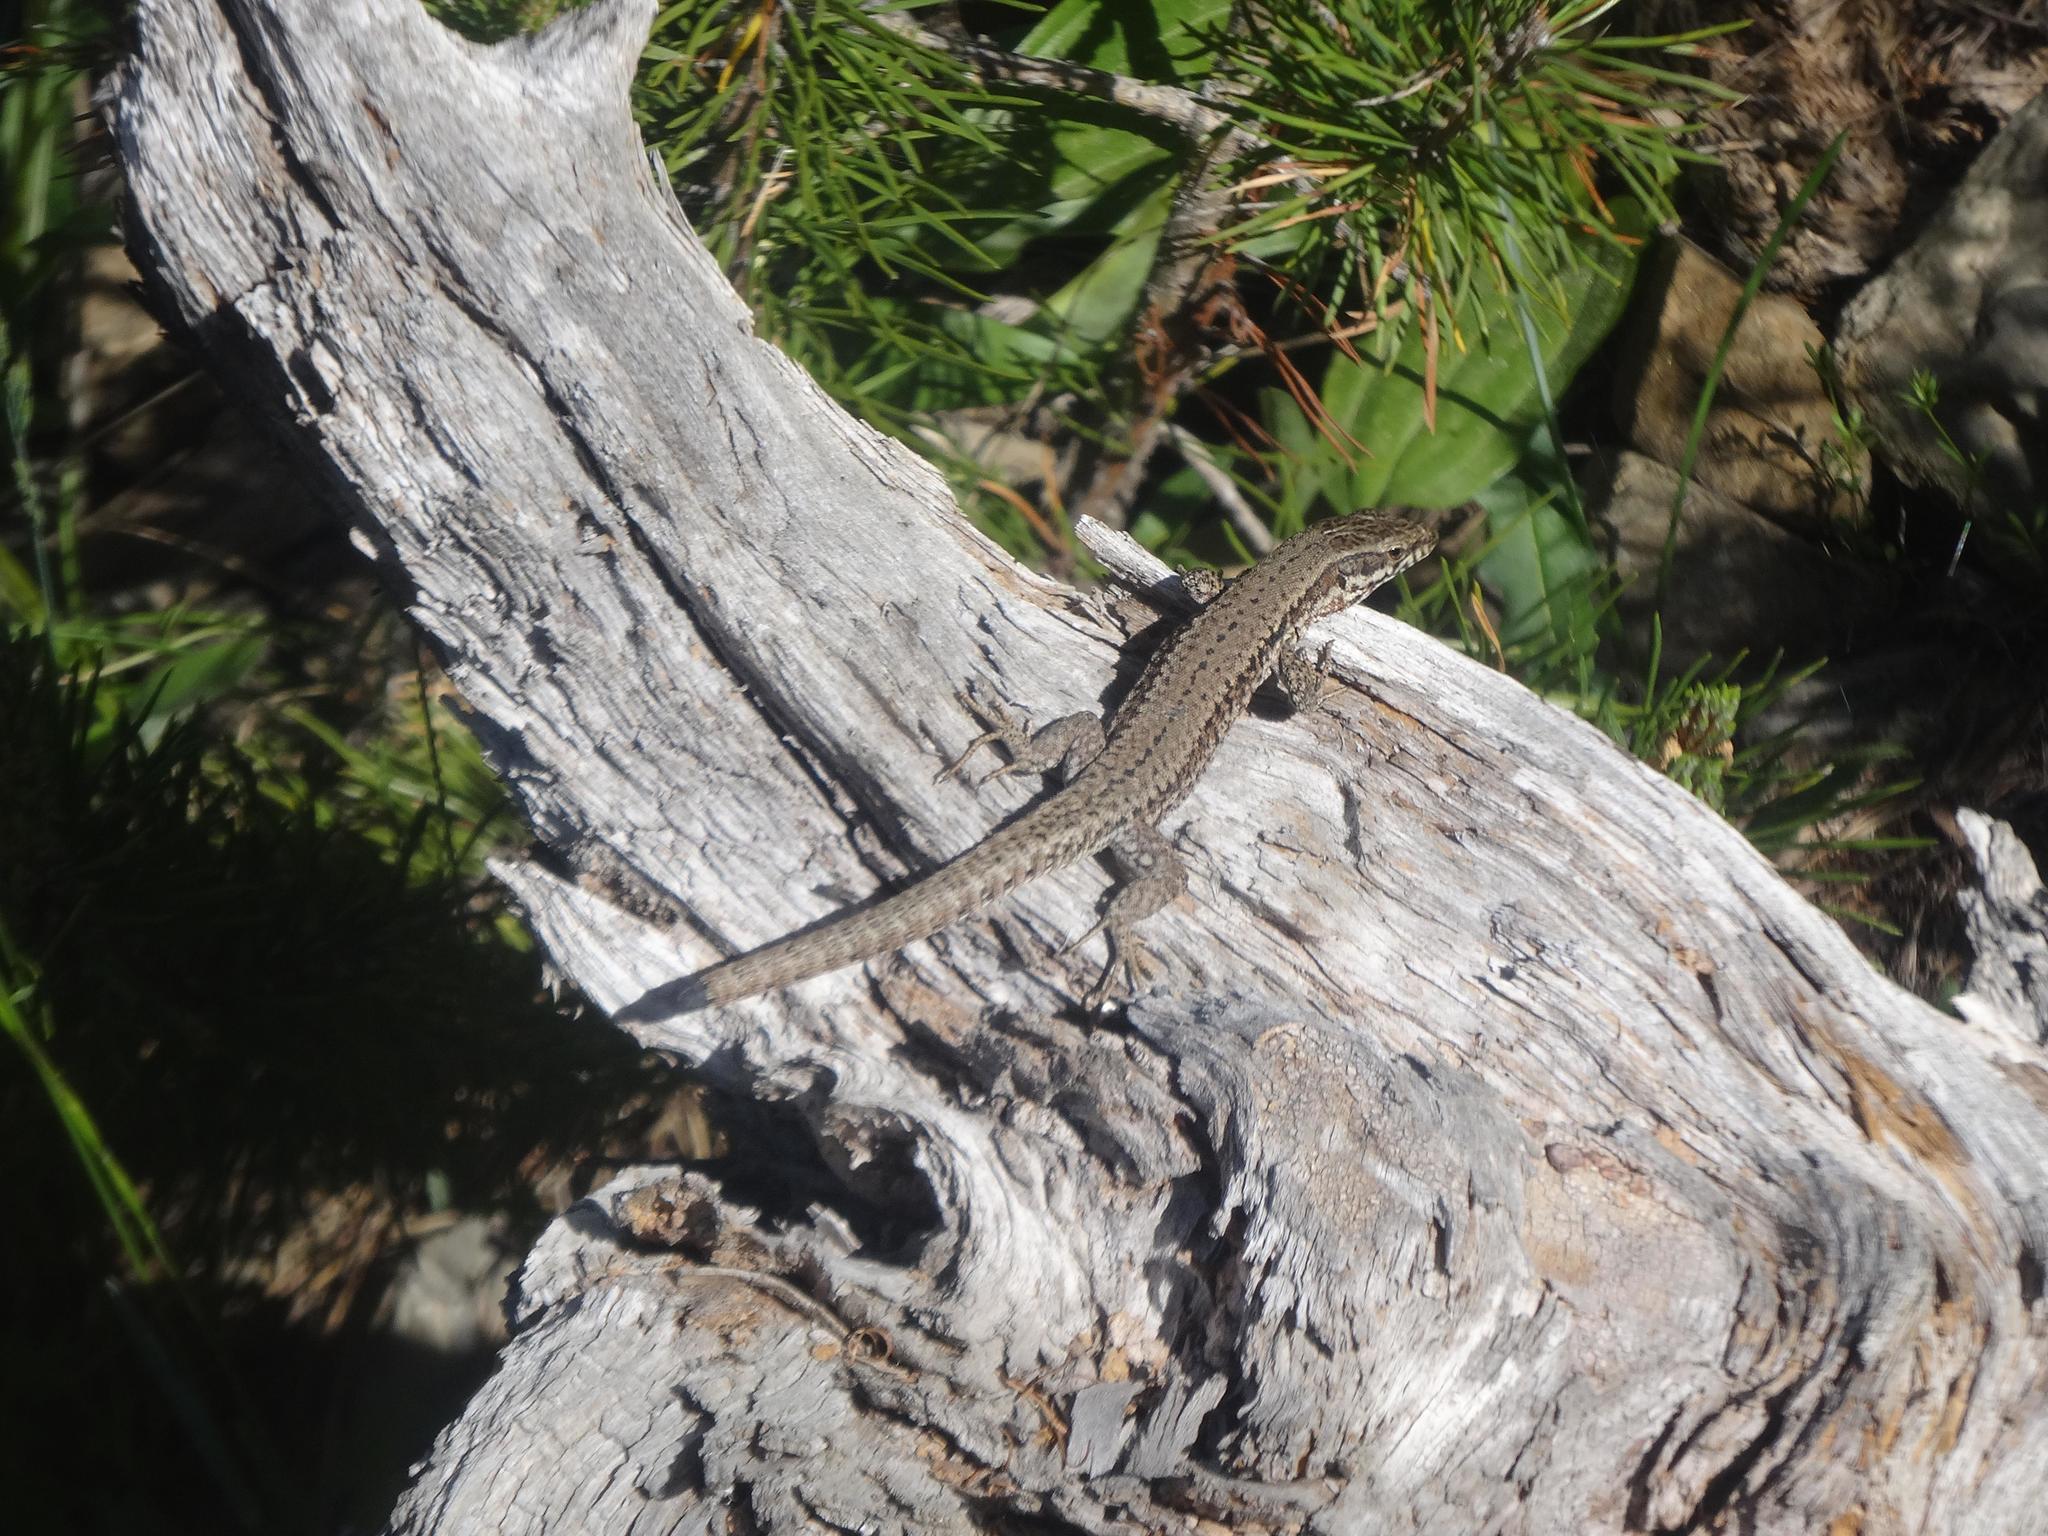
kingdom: Animalia
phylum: Chordata
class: Squamata
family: Lacertidae
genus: Podarcis
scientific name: Podarcis muralis
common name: Common wall lizard
